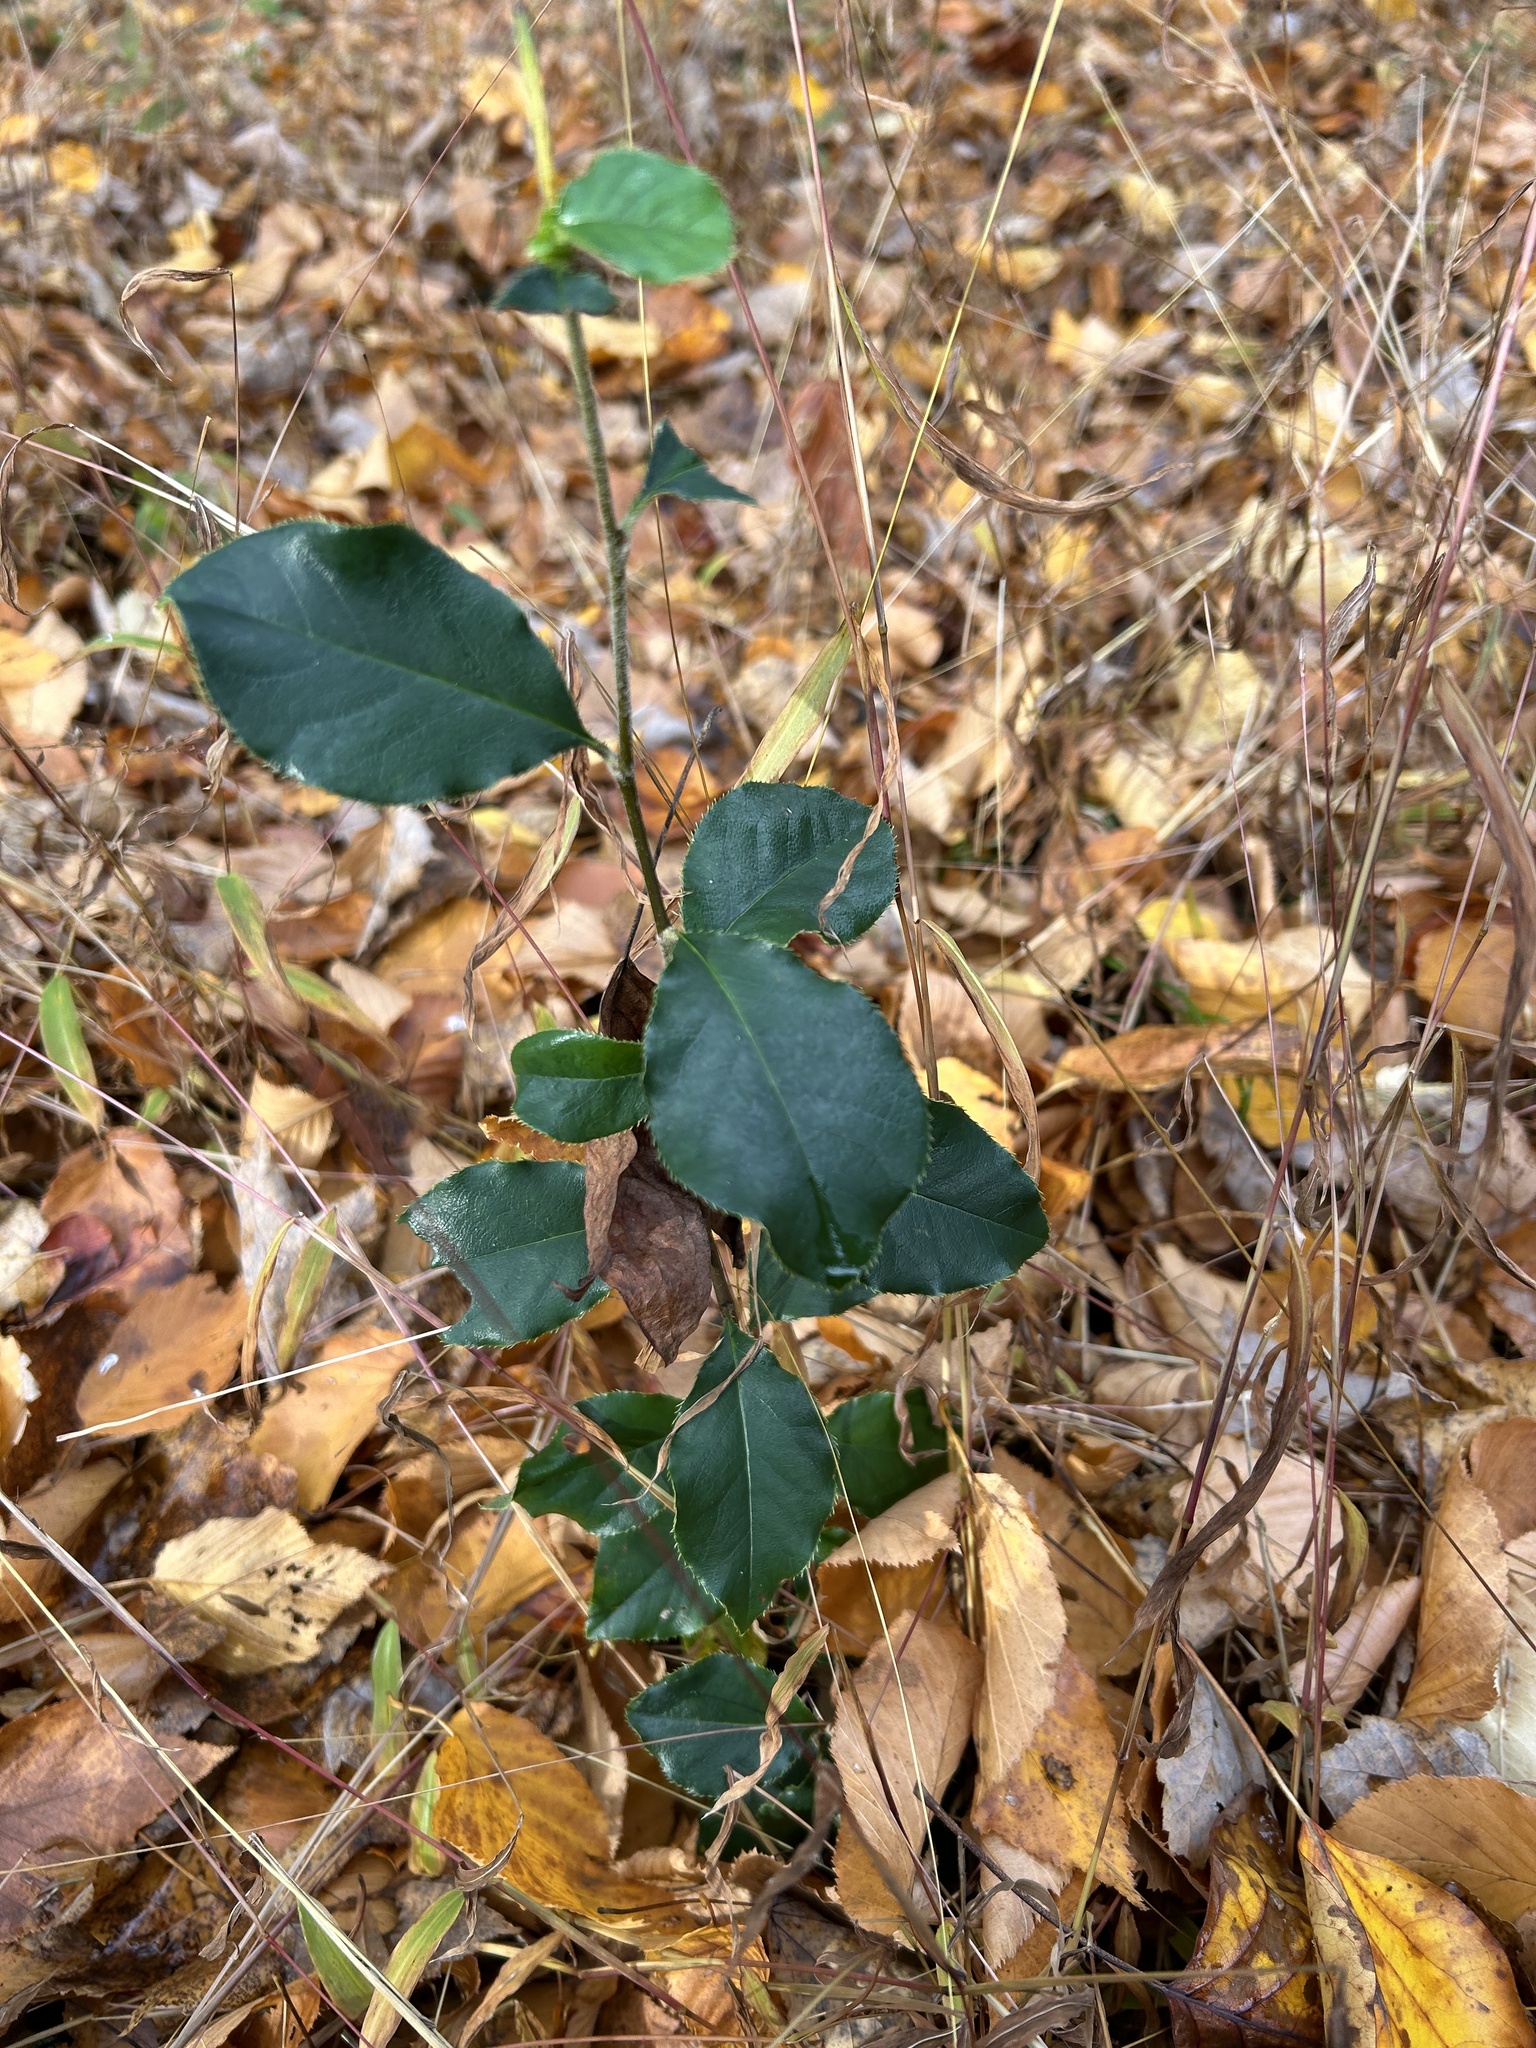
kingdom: Plantae
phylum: Tracheophyta
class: Magnoliopsida
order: Rosales
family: Rosaceae
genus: Pseudocydonia
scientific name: Pseudocydonia sinensis
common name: Chinese-quince
